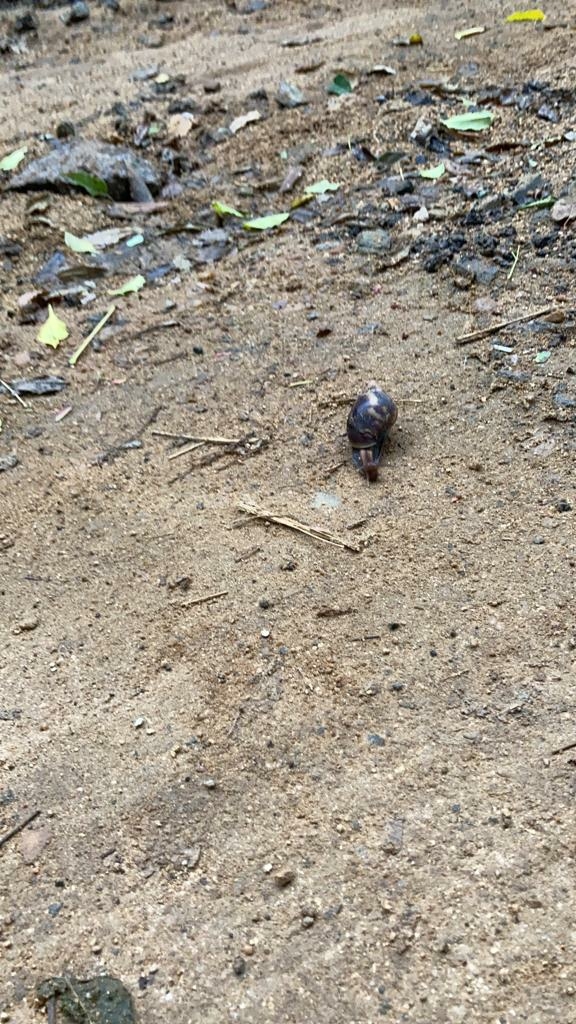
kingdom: Animalia
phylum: Mollusca
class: Gastropoda
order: Stylommatophora
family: Achatinidae
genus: Lissachatina
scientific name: Lissachatina fulica
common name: Giant african snail
